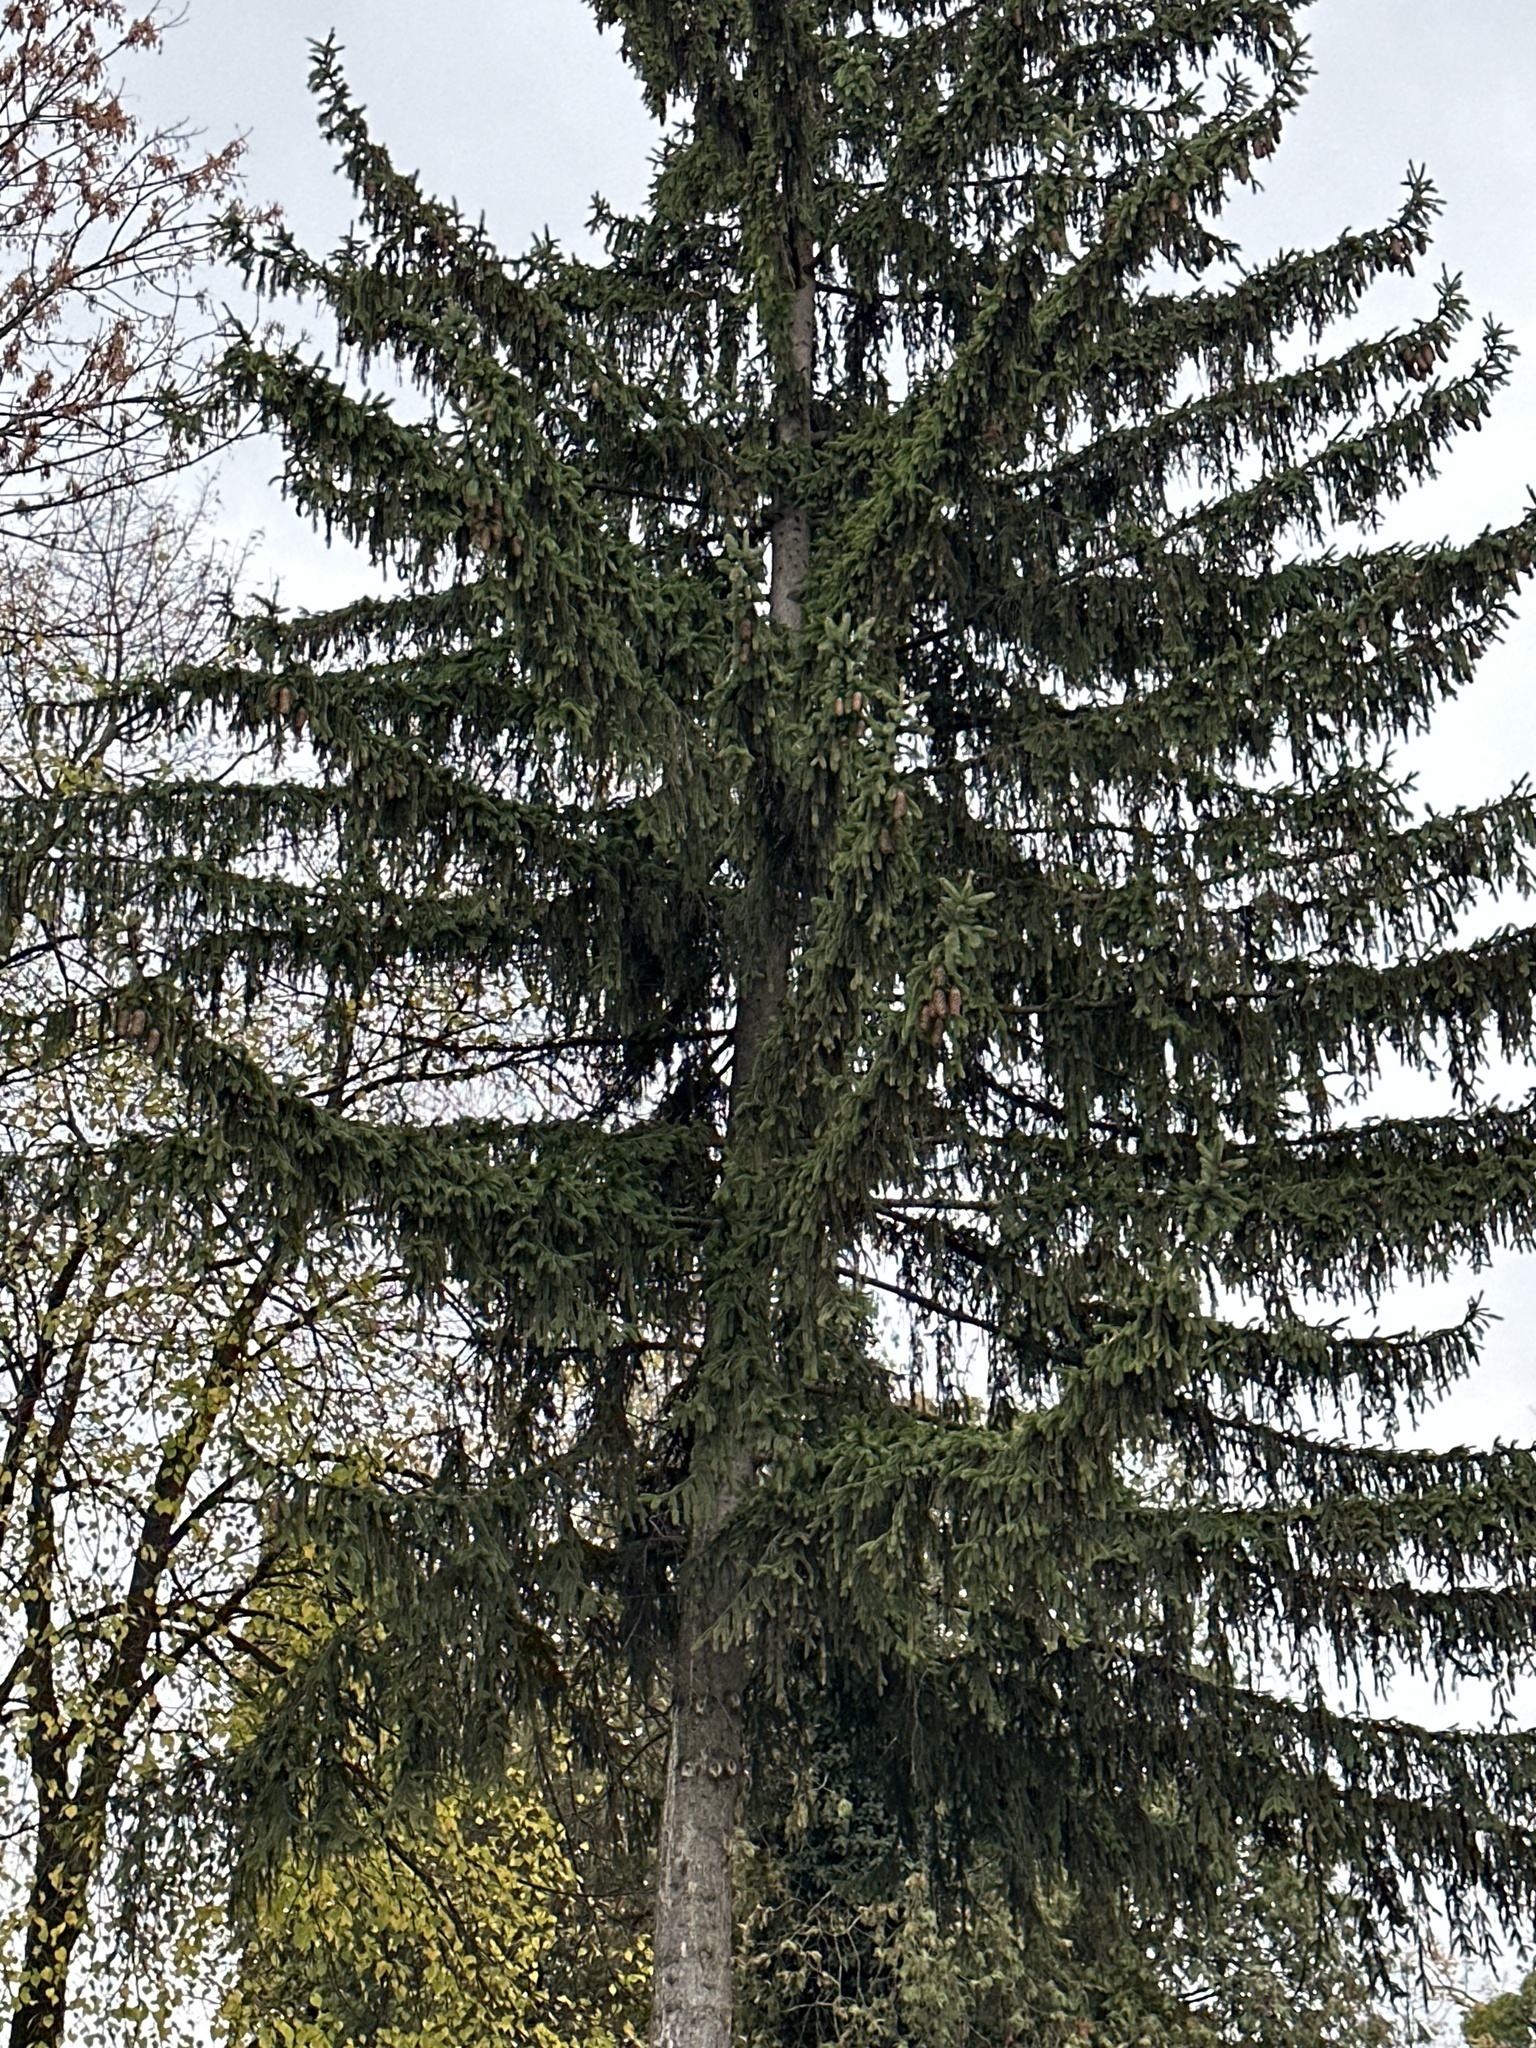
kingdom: Plantae
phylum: Tracheophyta
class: Pinopsida
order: Pinales
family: Pinaceae
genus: Picea
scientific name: Picea abies
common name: Norway spruce
